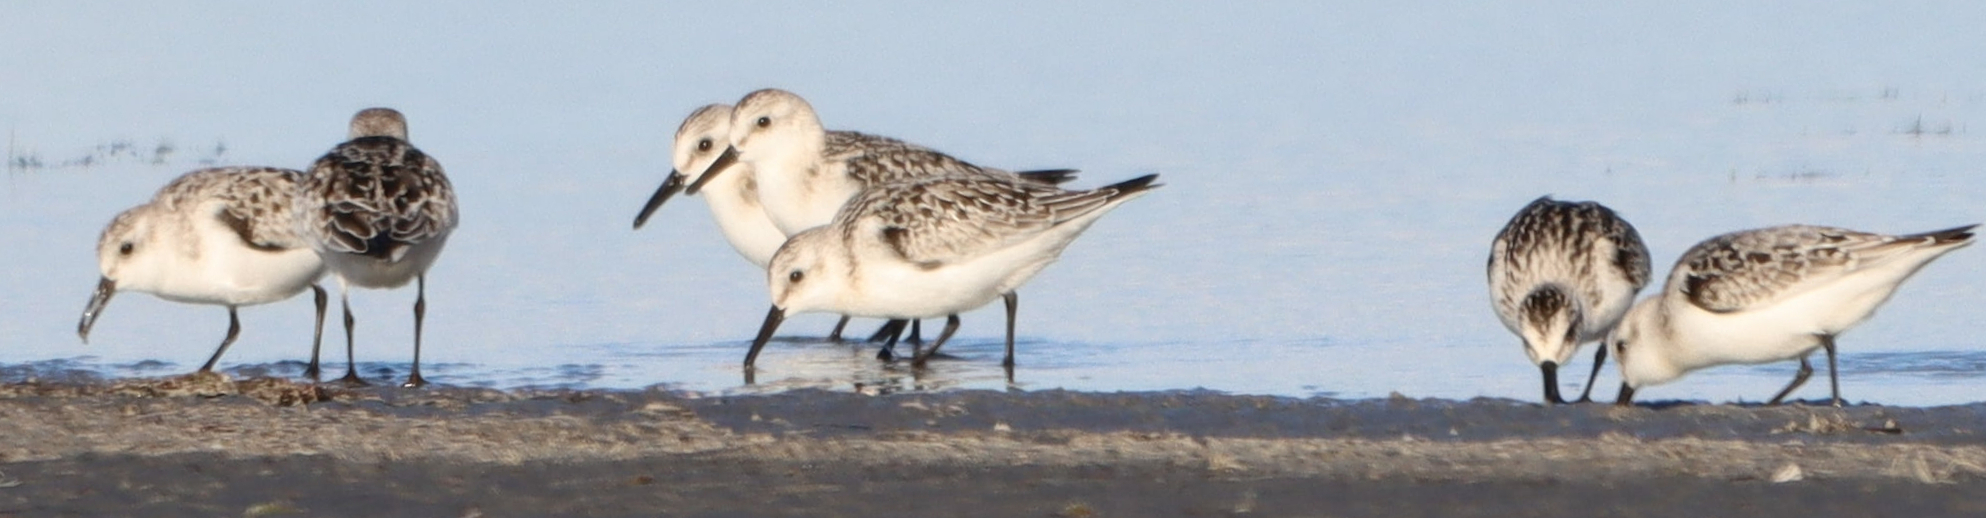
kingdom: Animalia
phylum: Chordata
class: Aves
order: Charadriiformes
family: Scolopacidae
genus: Calidris
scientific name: Calidris alba
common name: Sanderling
